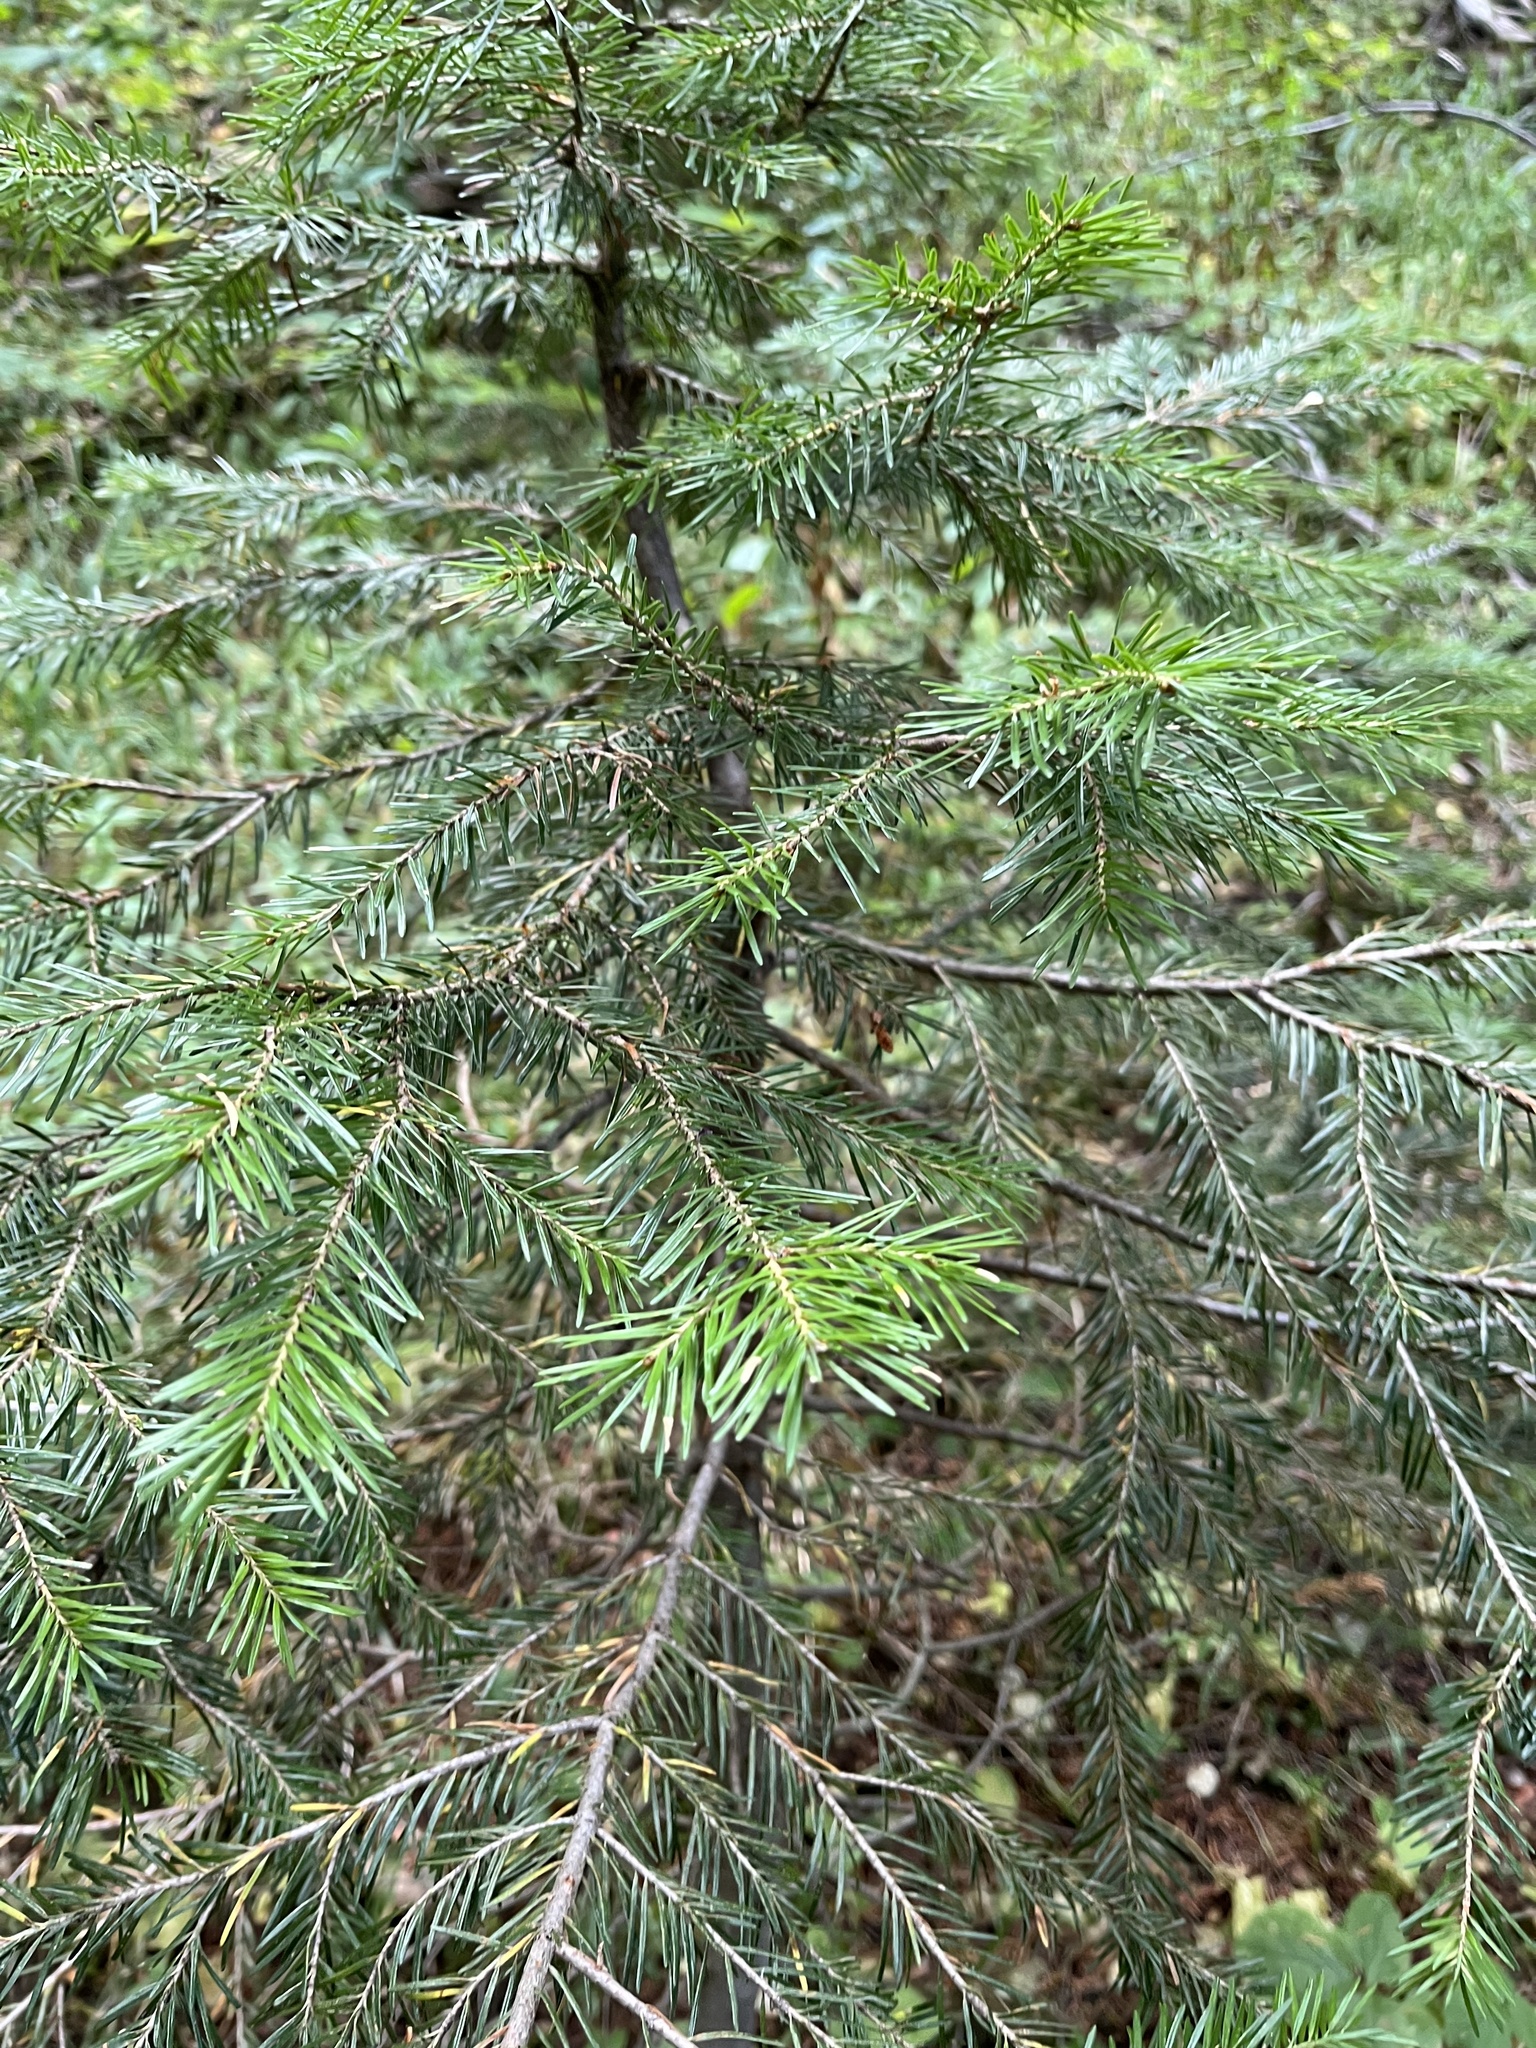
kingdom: Plantae
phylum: Tracheophyta
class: Pinopsida
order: Pinales
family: Pinaceae
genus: Pseudotsuga
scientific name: Pseudotsuga menziesii
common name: Douglas fir
